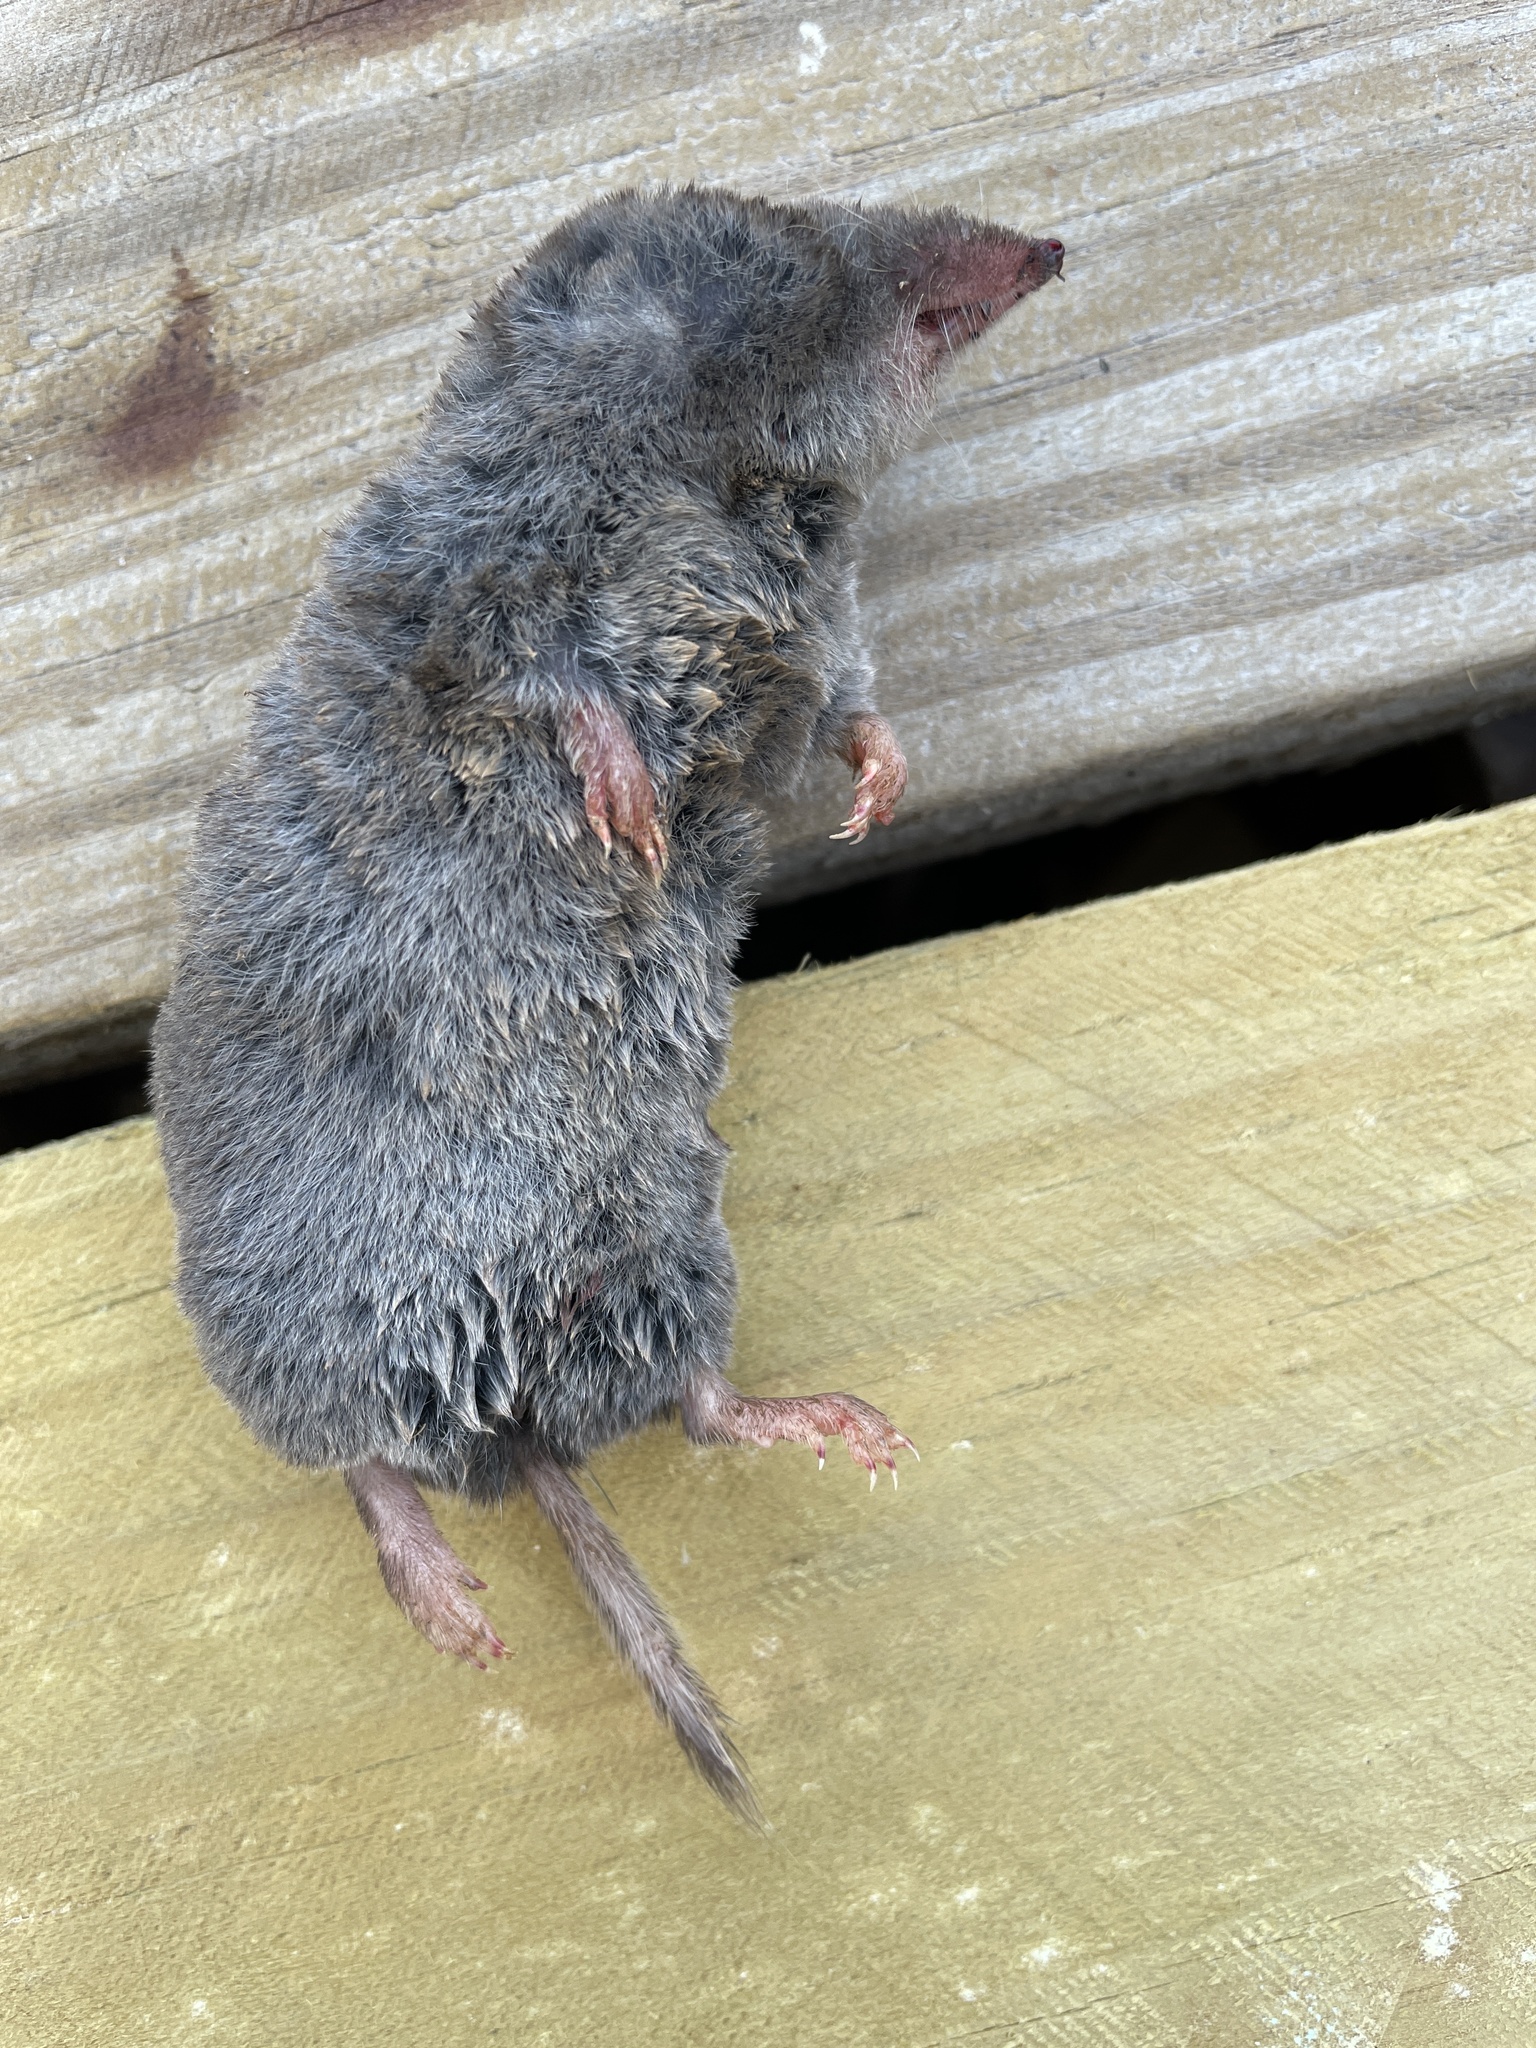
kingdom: Animalia
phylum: Chordata
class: Mammalia
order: Soricomorpha
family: Soricidae
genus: Blarina
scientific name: Blarina brevicauda
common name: Northern short-tailed shrew
